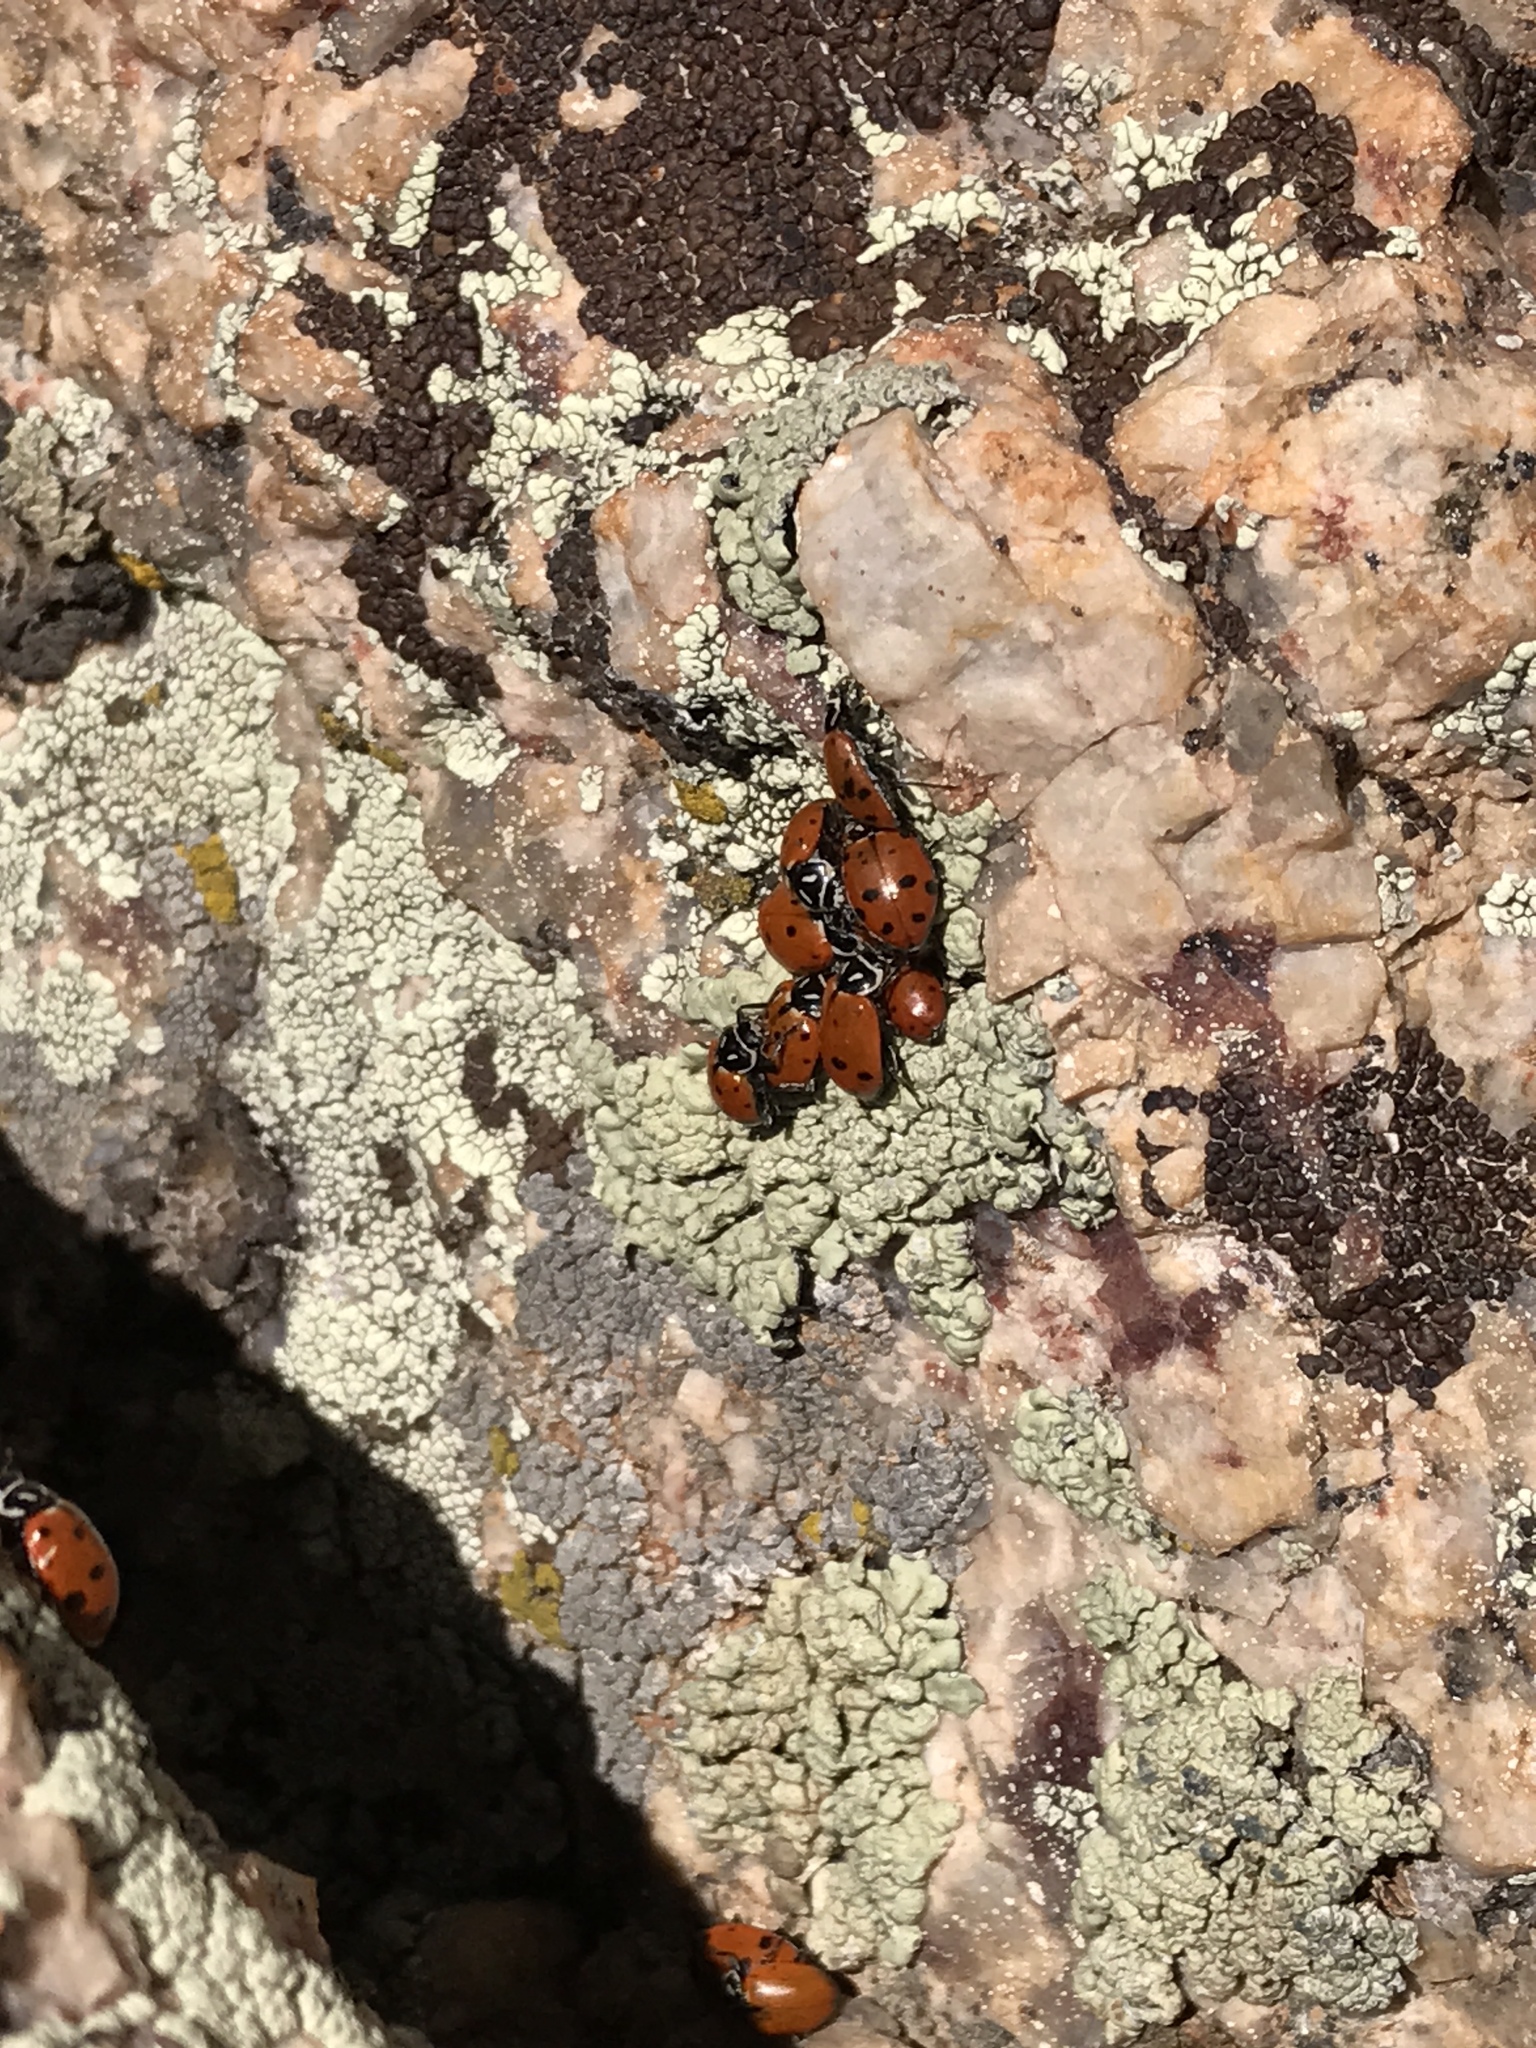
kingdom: Animalia
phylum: Arthropoda
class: Insecta
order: Coleoptera
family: Coccinellidae
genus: Hippodamia
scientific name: Hippodamia convergens
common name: Convergent lady beetle
